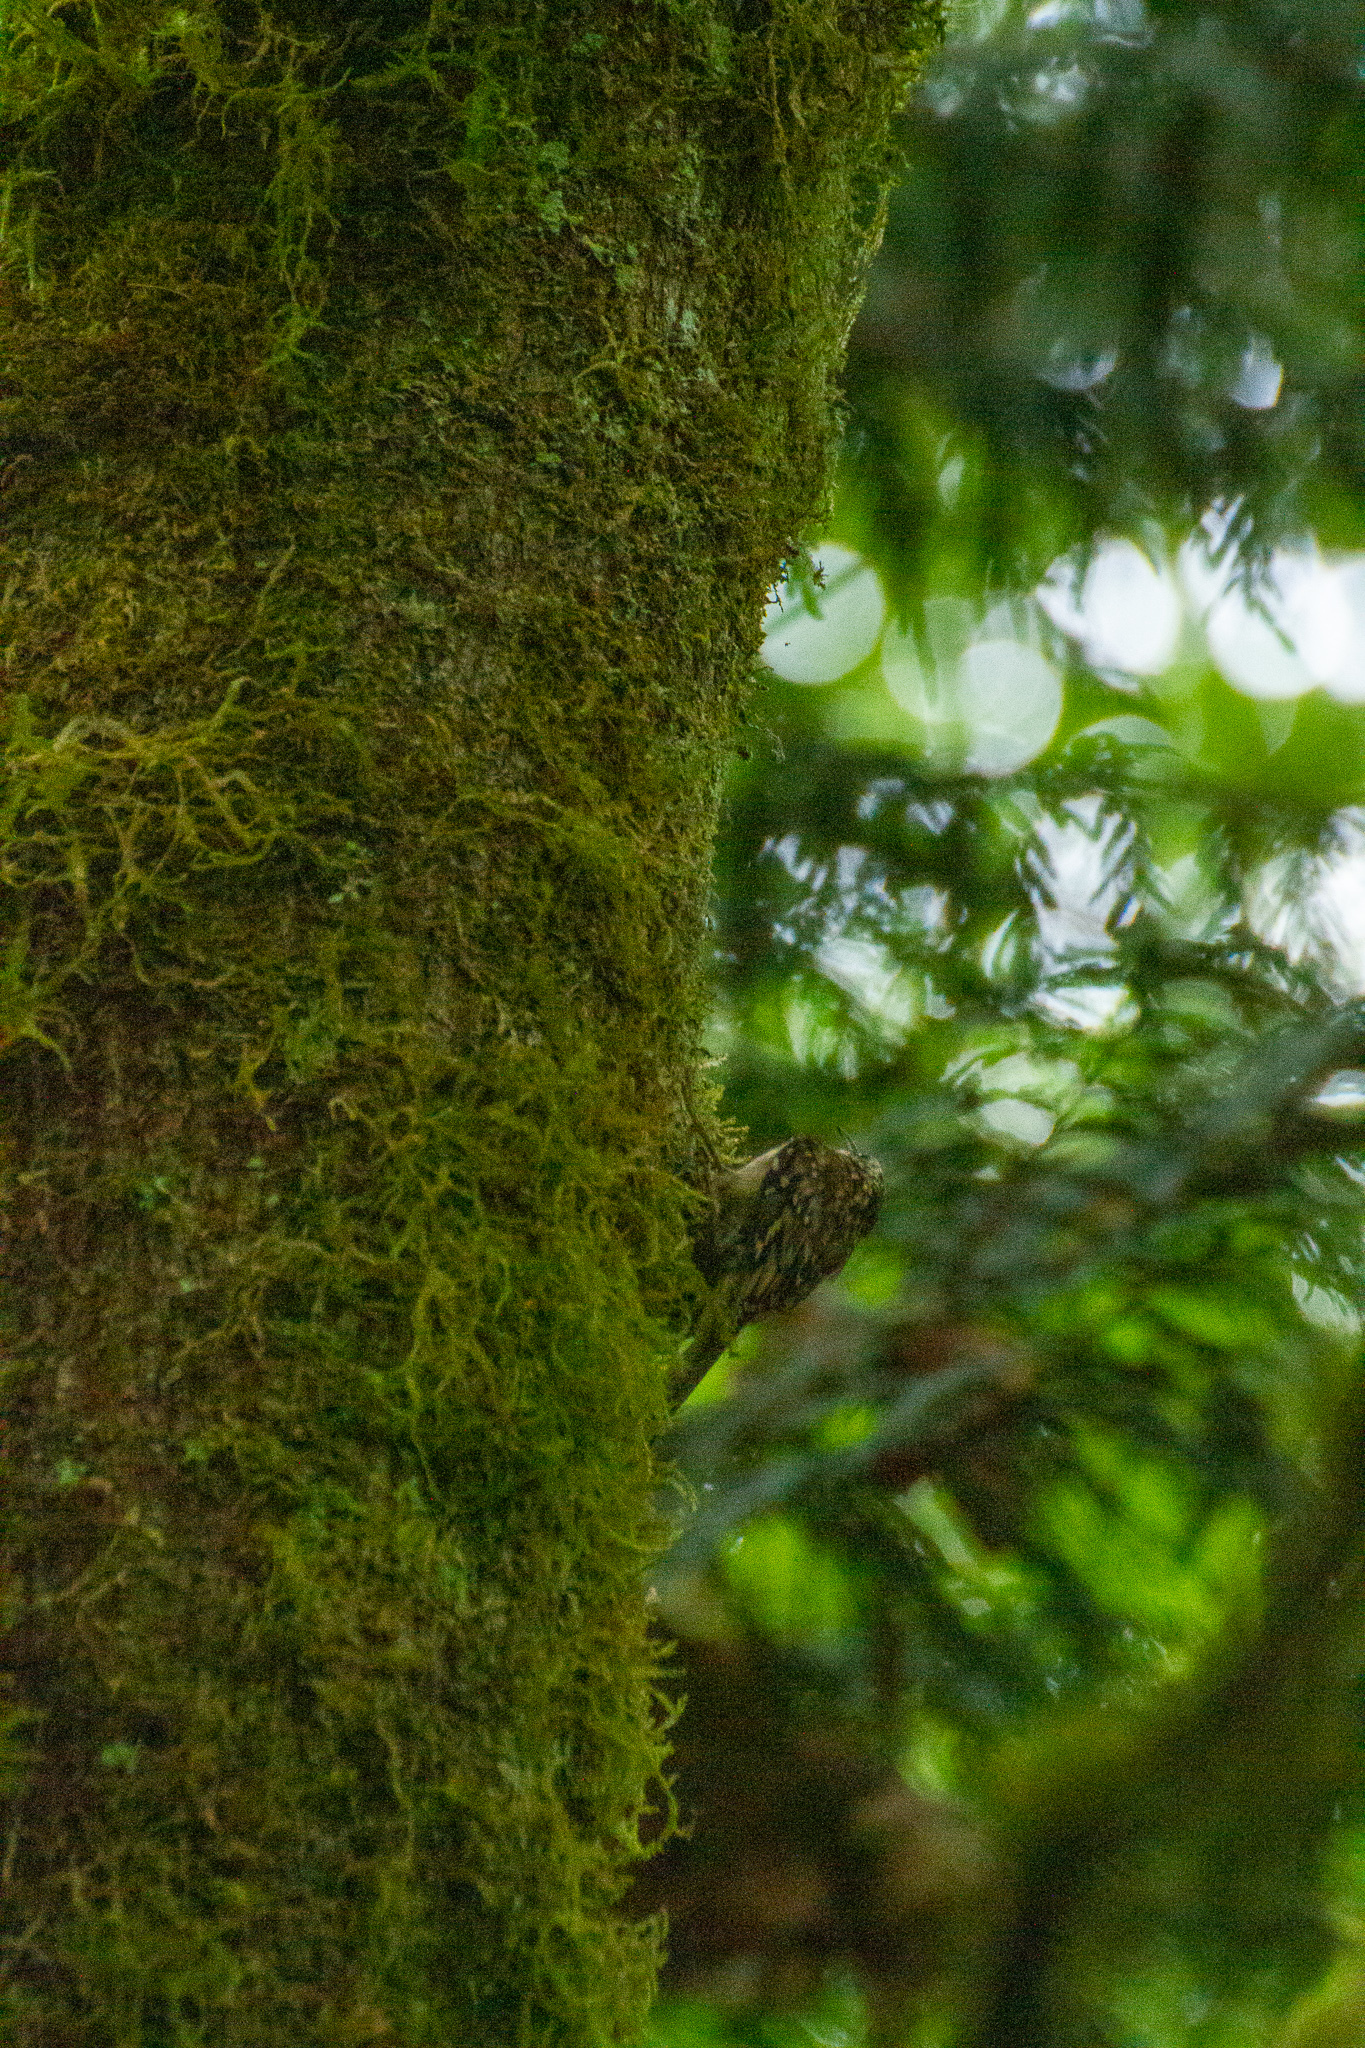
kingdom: Animalia
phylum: Chordata
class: Aves
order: Passeriformes
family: Certhiidae
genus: Certhia
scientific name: Certhia americana
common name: Brown creeper
